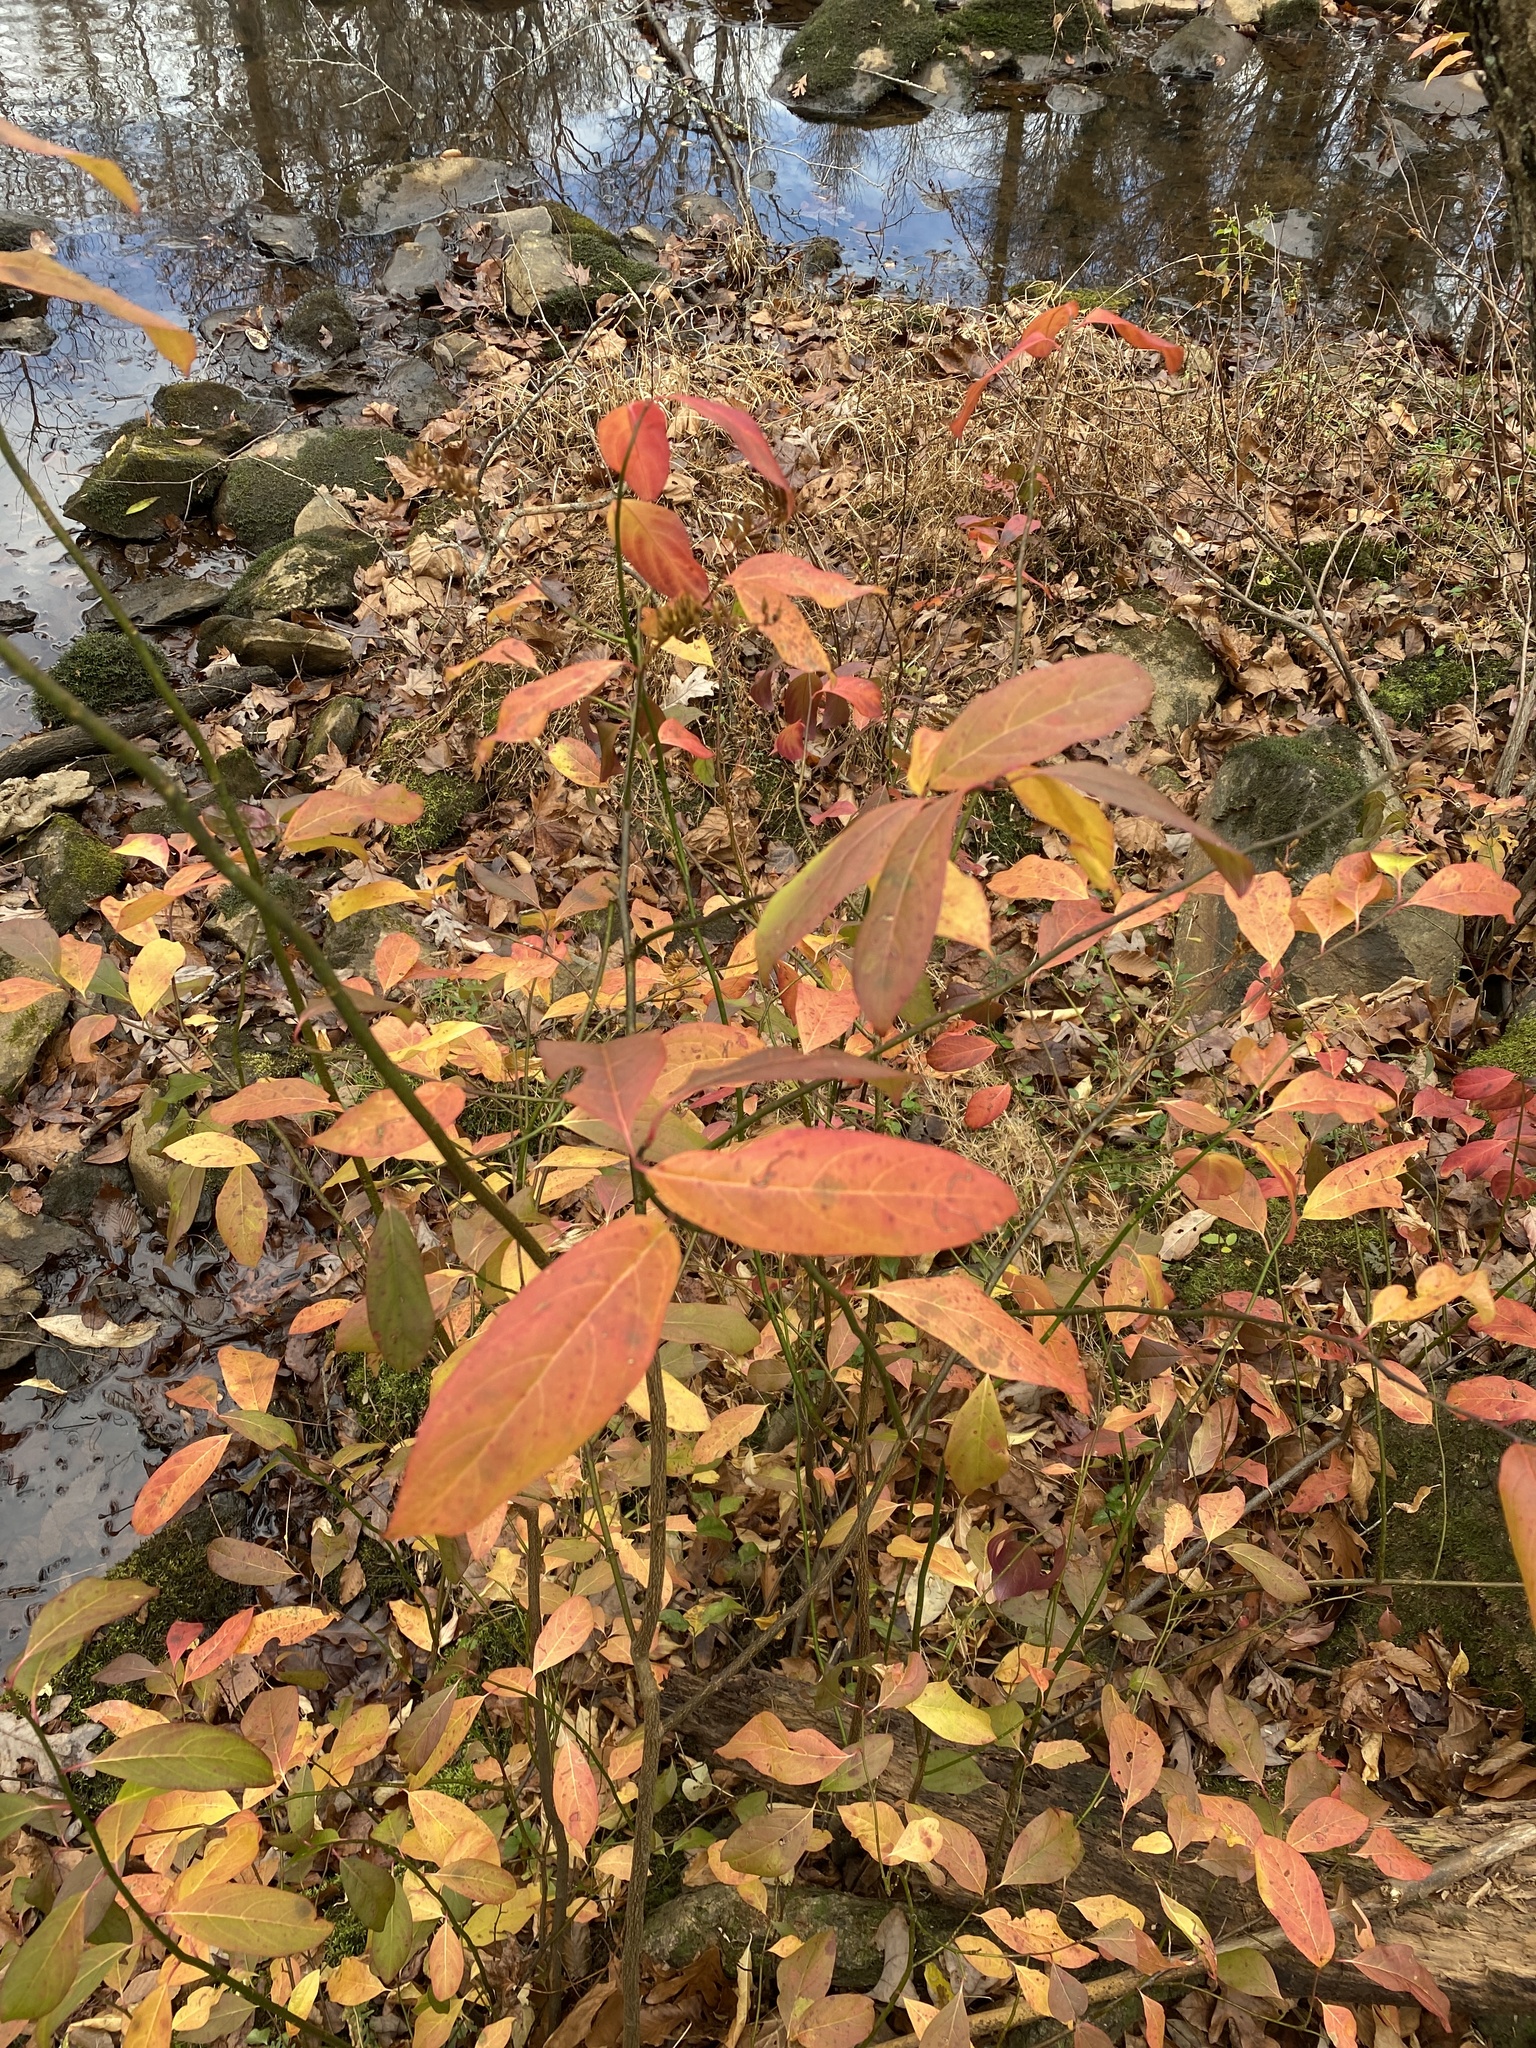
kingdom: Plantae
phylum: Tracheophyta
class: Magnoliopsida
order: Saxifragales
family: Iteaceae
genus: Itea
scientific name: Itea virginica
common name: Sweetspire
